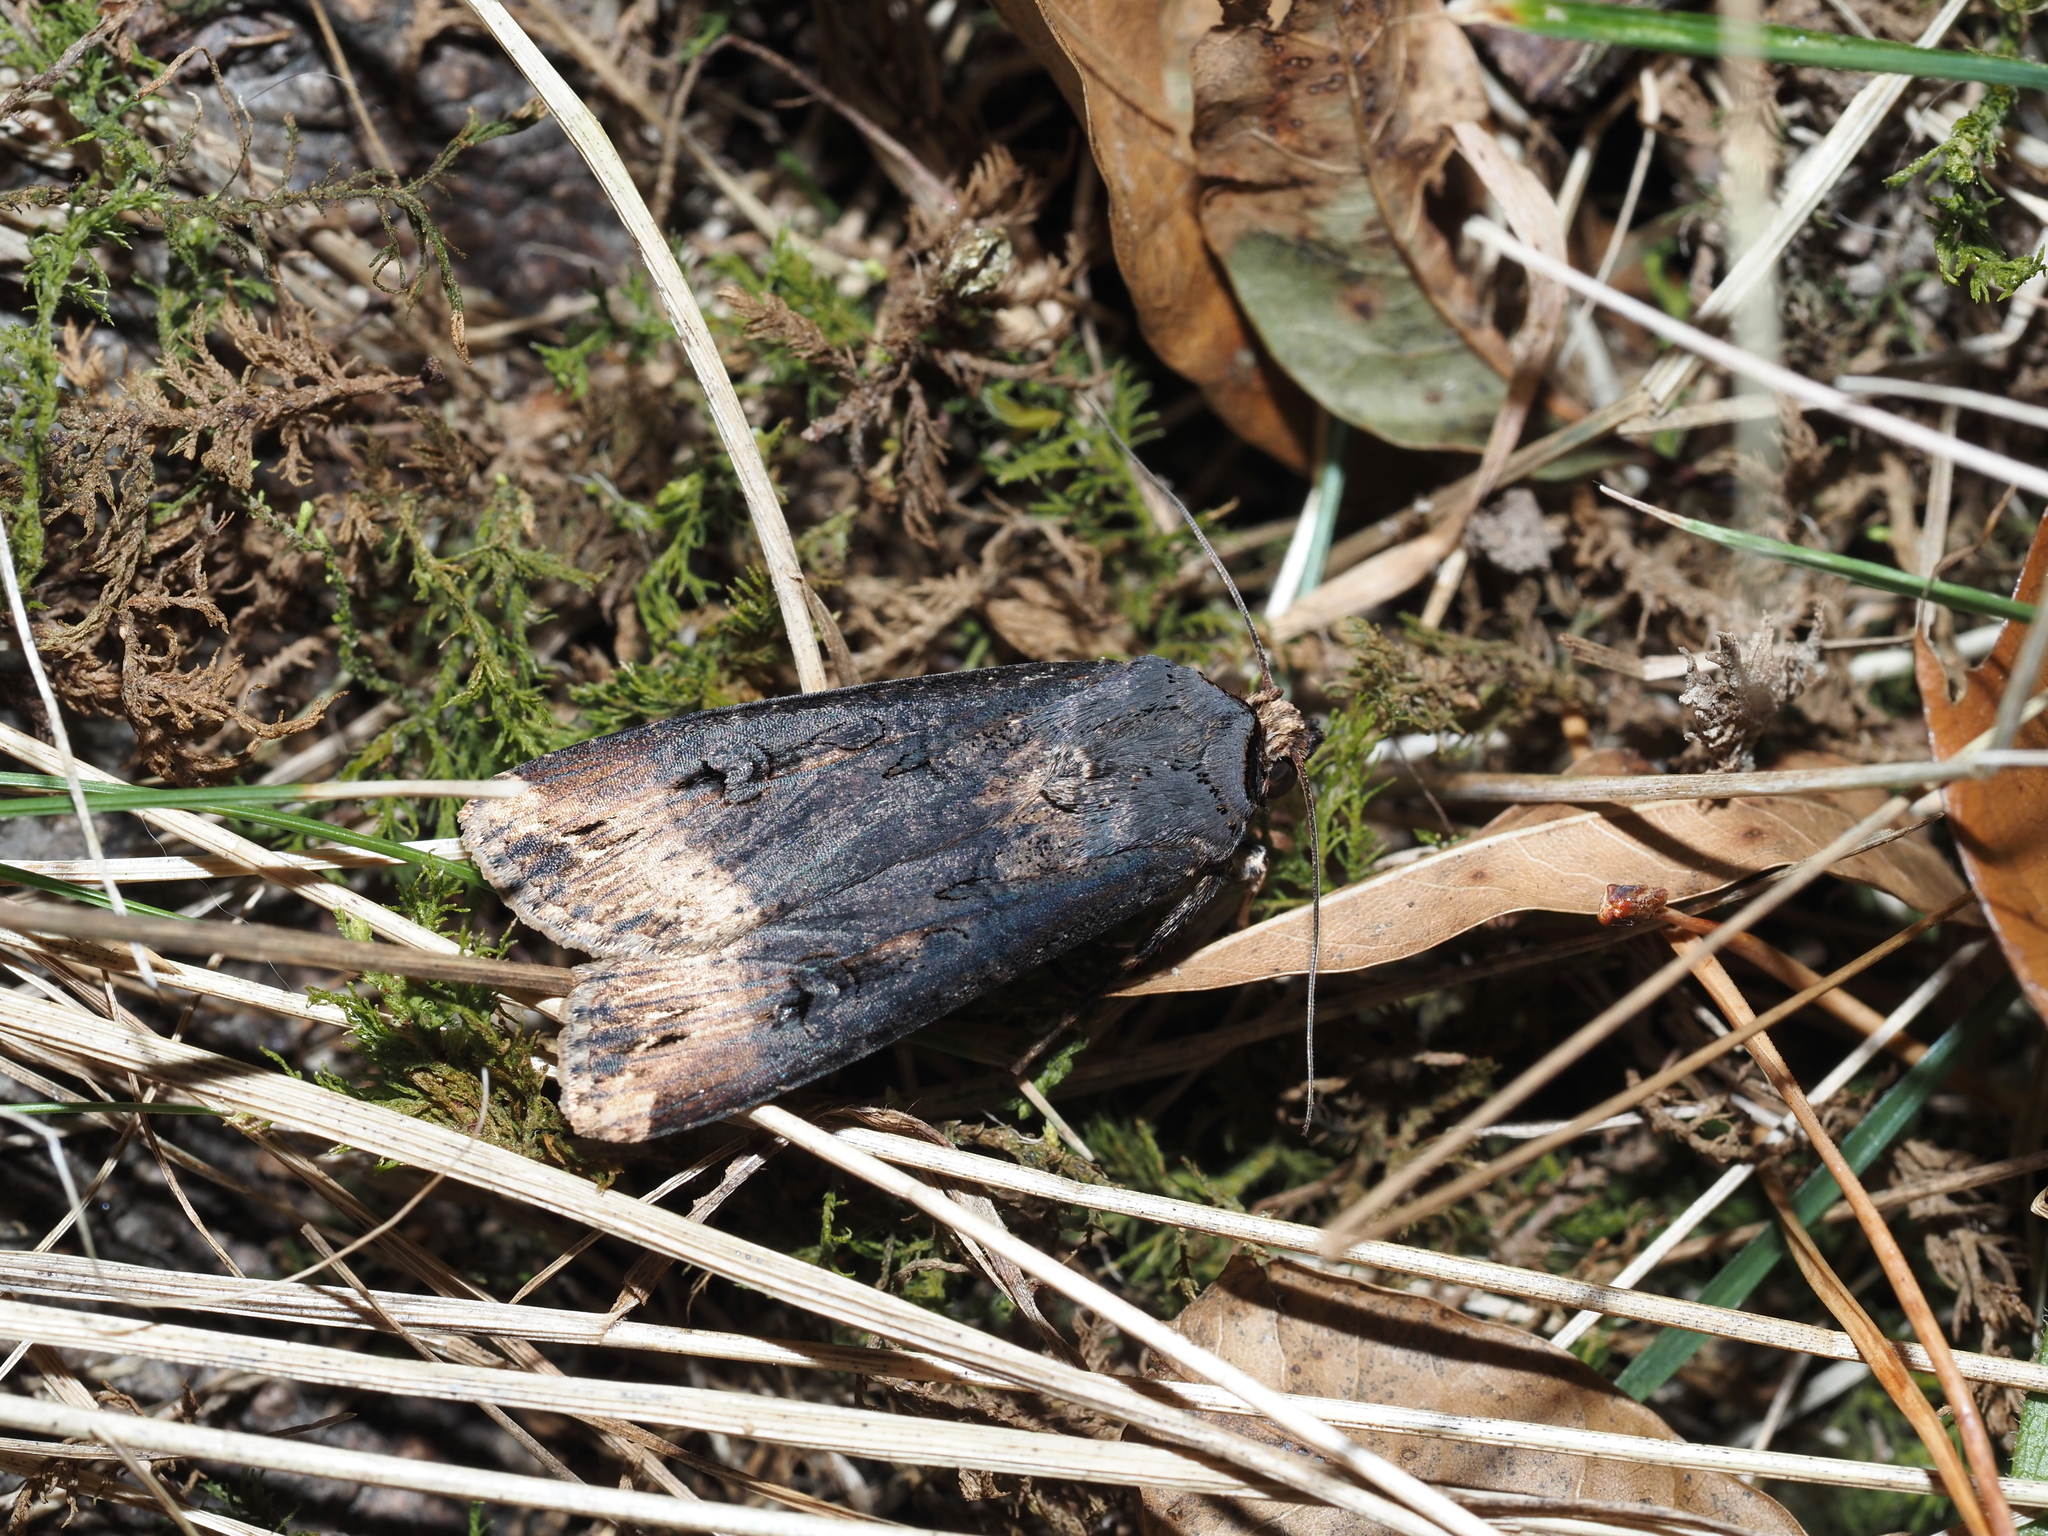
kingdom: Animalia
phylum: Arthropoda
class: Insecta
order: Lepidoptera
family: Noctuidae
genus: Agrotis
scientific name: Agrotis ipsilon
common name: Dark sword-grass
